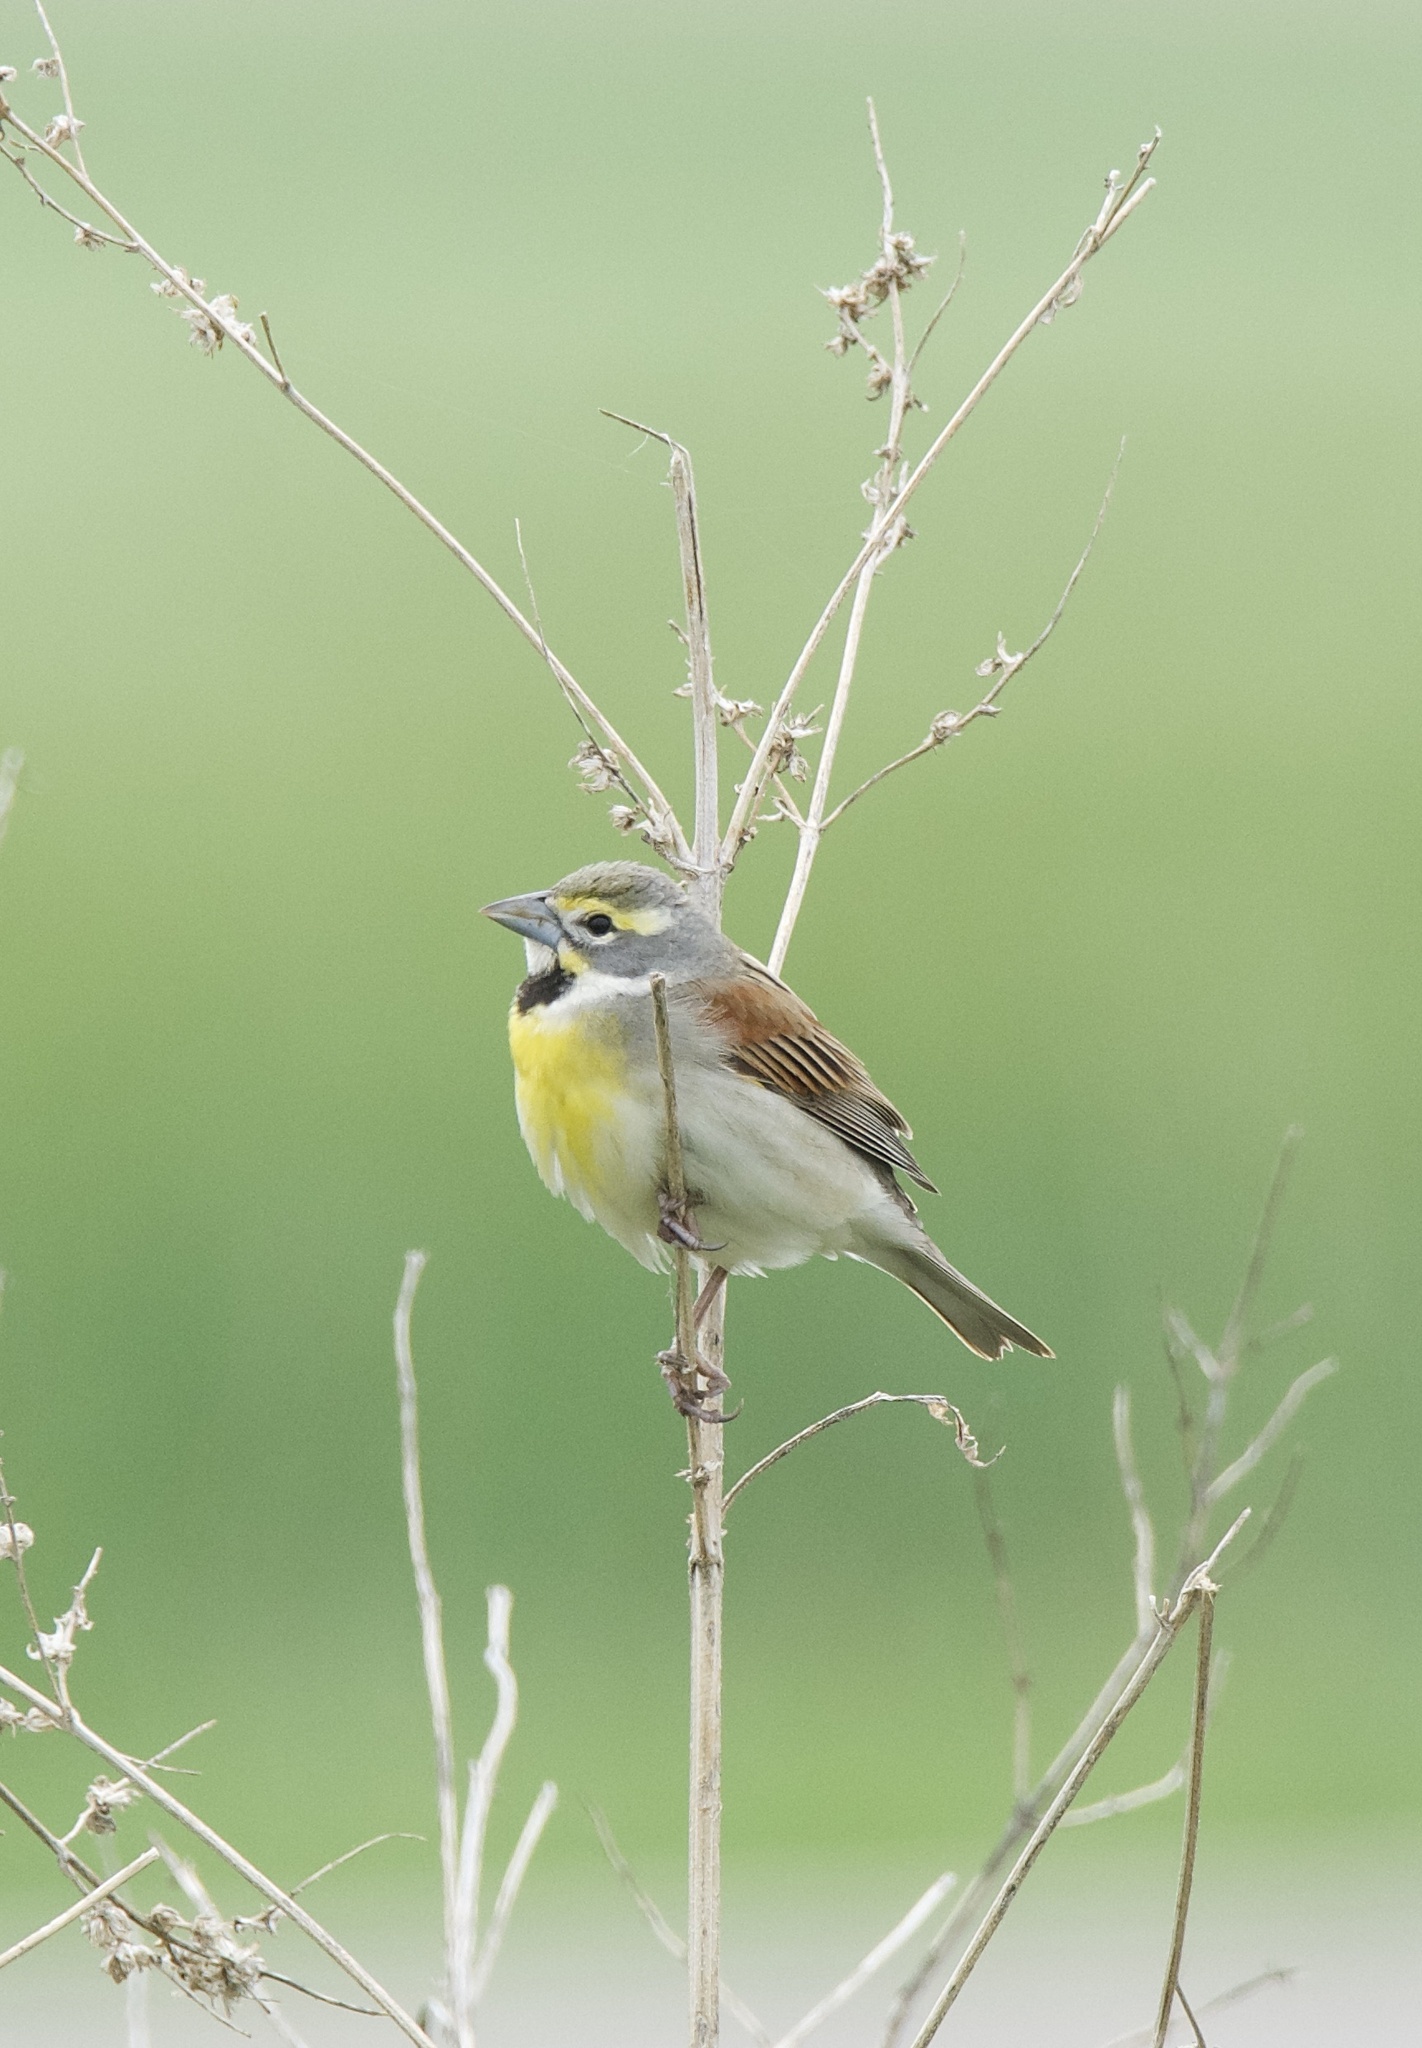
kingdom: Animalia
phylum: Chordata
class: Aves
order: Passeriformes
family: Cardinalidae
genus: Spiza
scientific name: Spiza americana
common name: Dickcissel
